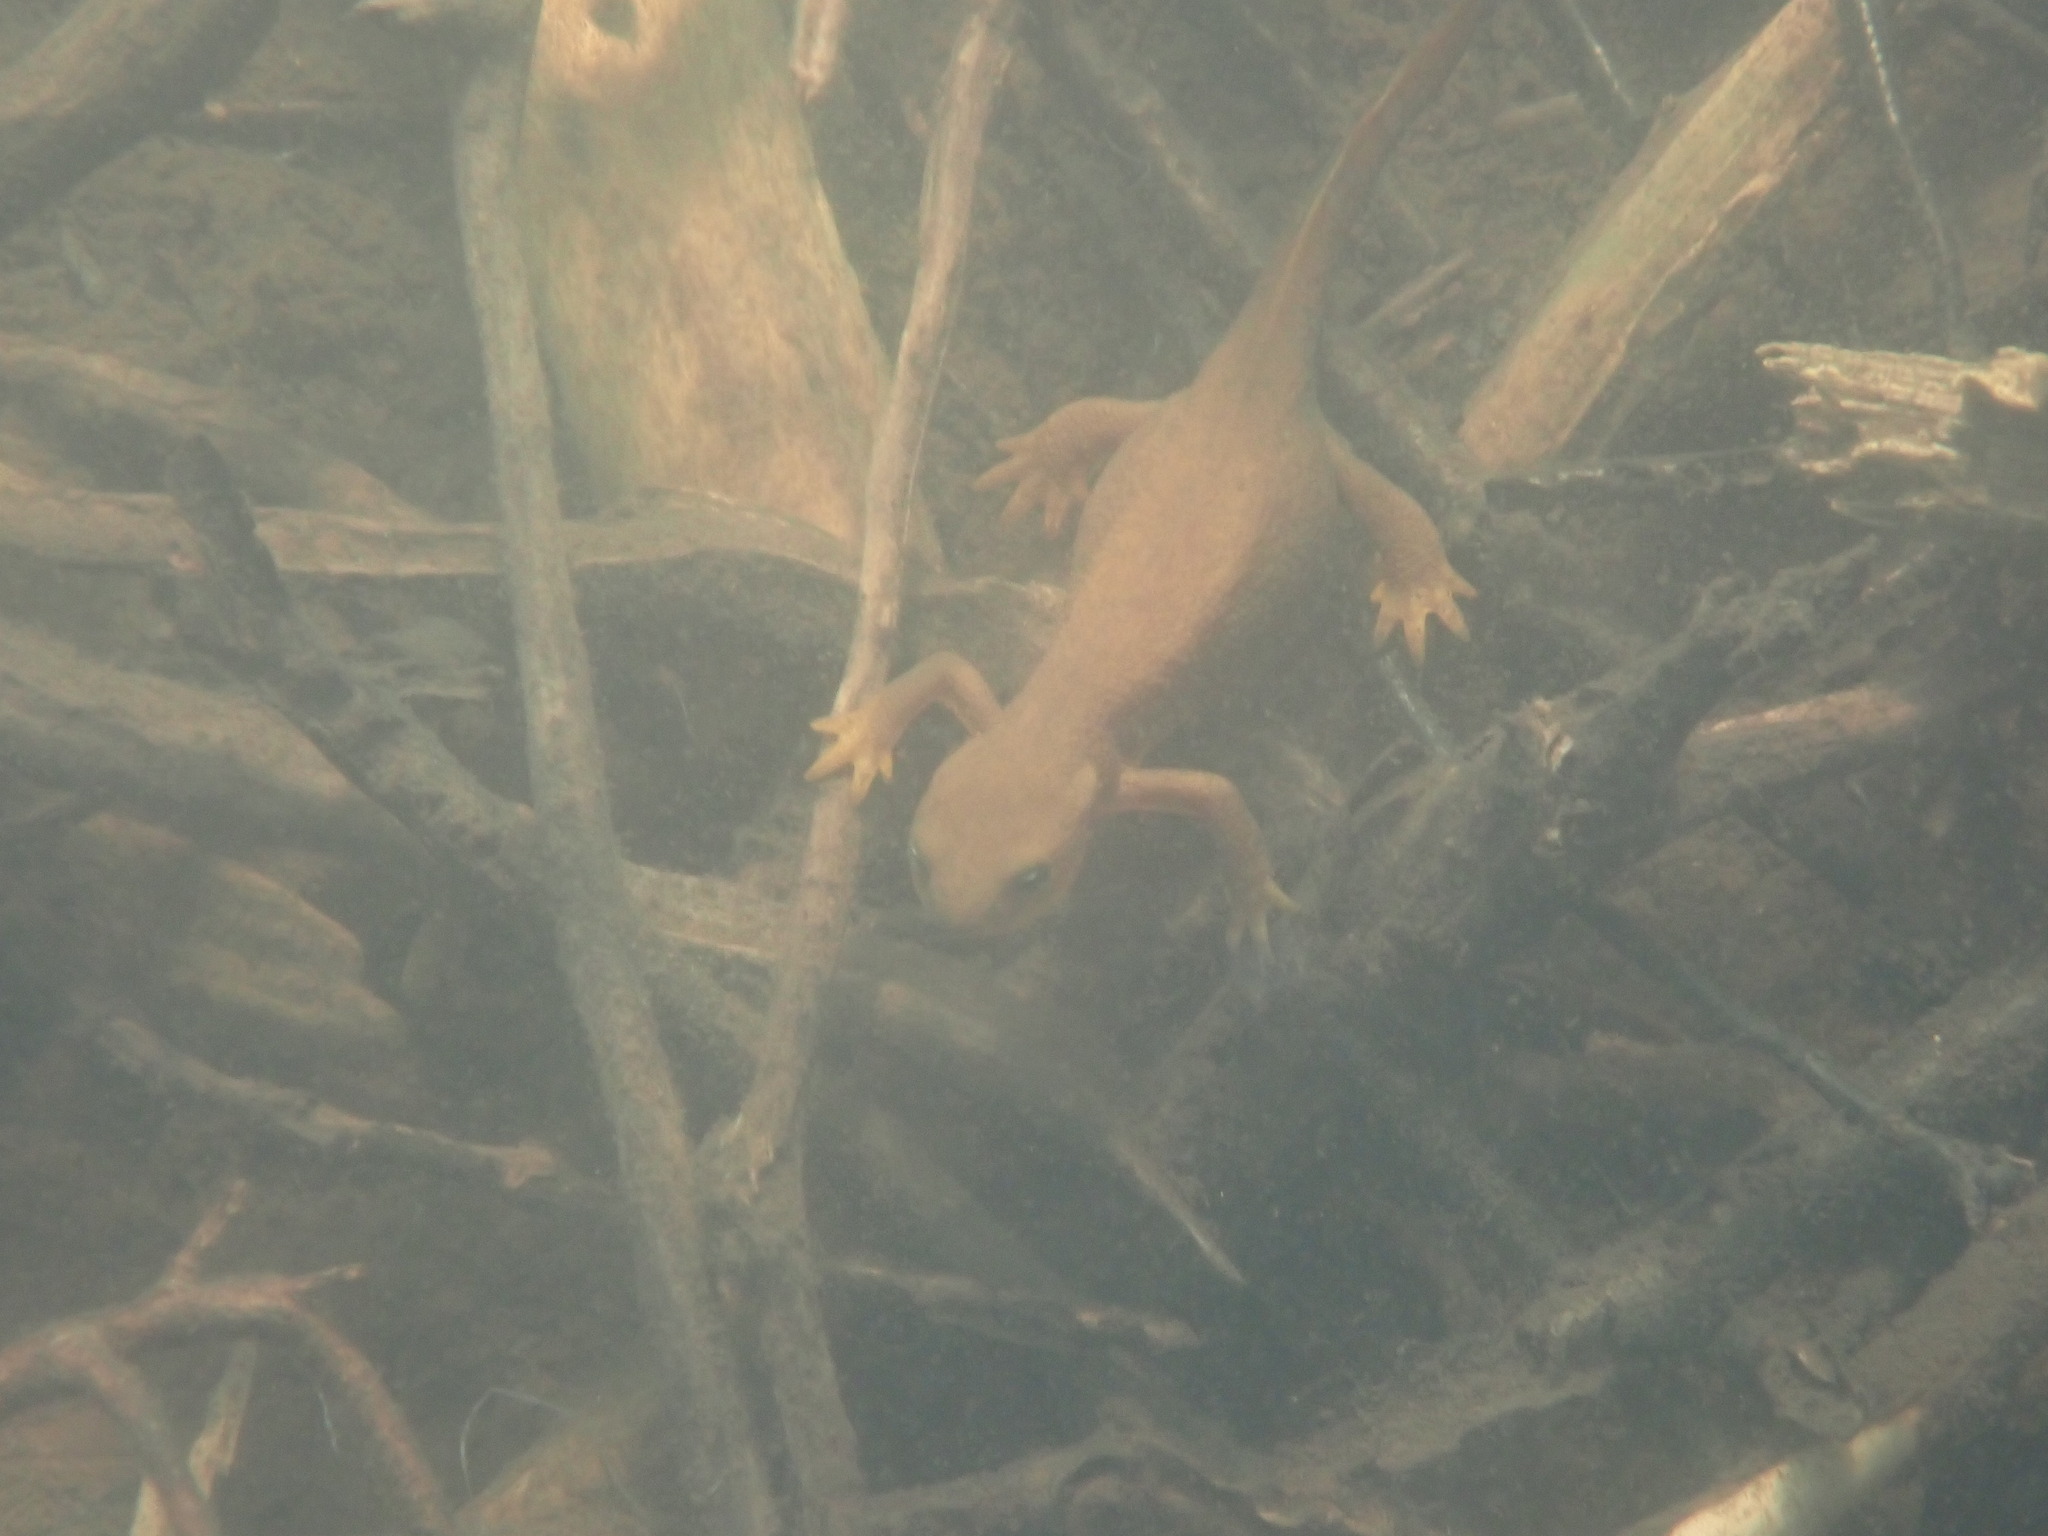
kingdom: Animalia
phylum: Chordata
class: Amphibia
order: Caudata
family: Salamandridae
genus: Taricha
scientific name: Taricha granulosa
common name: Roughskin newt
